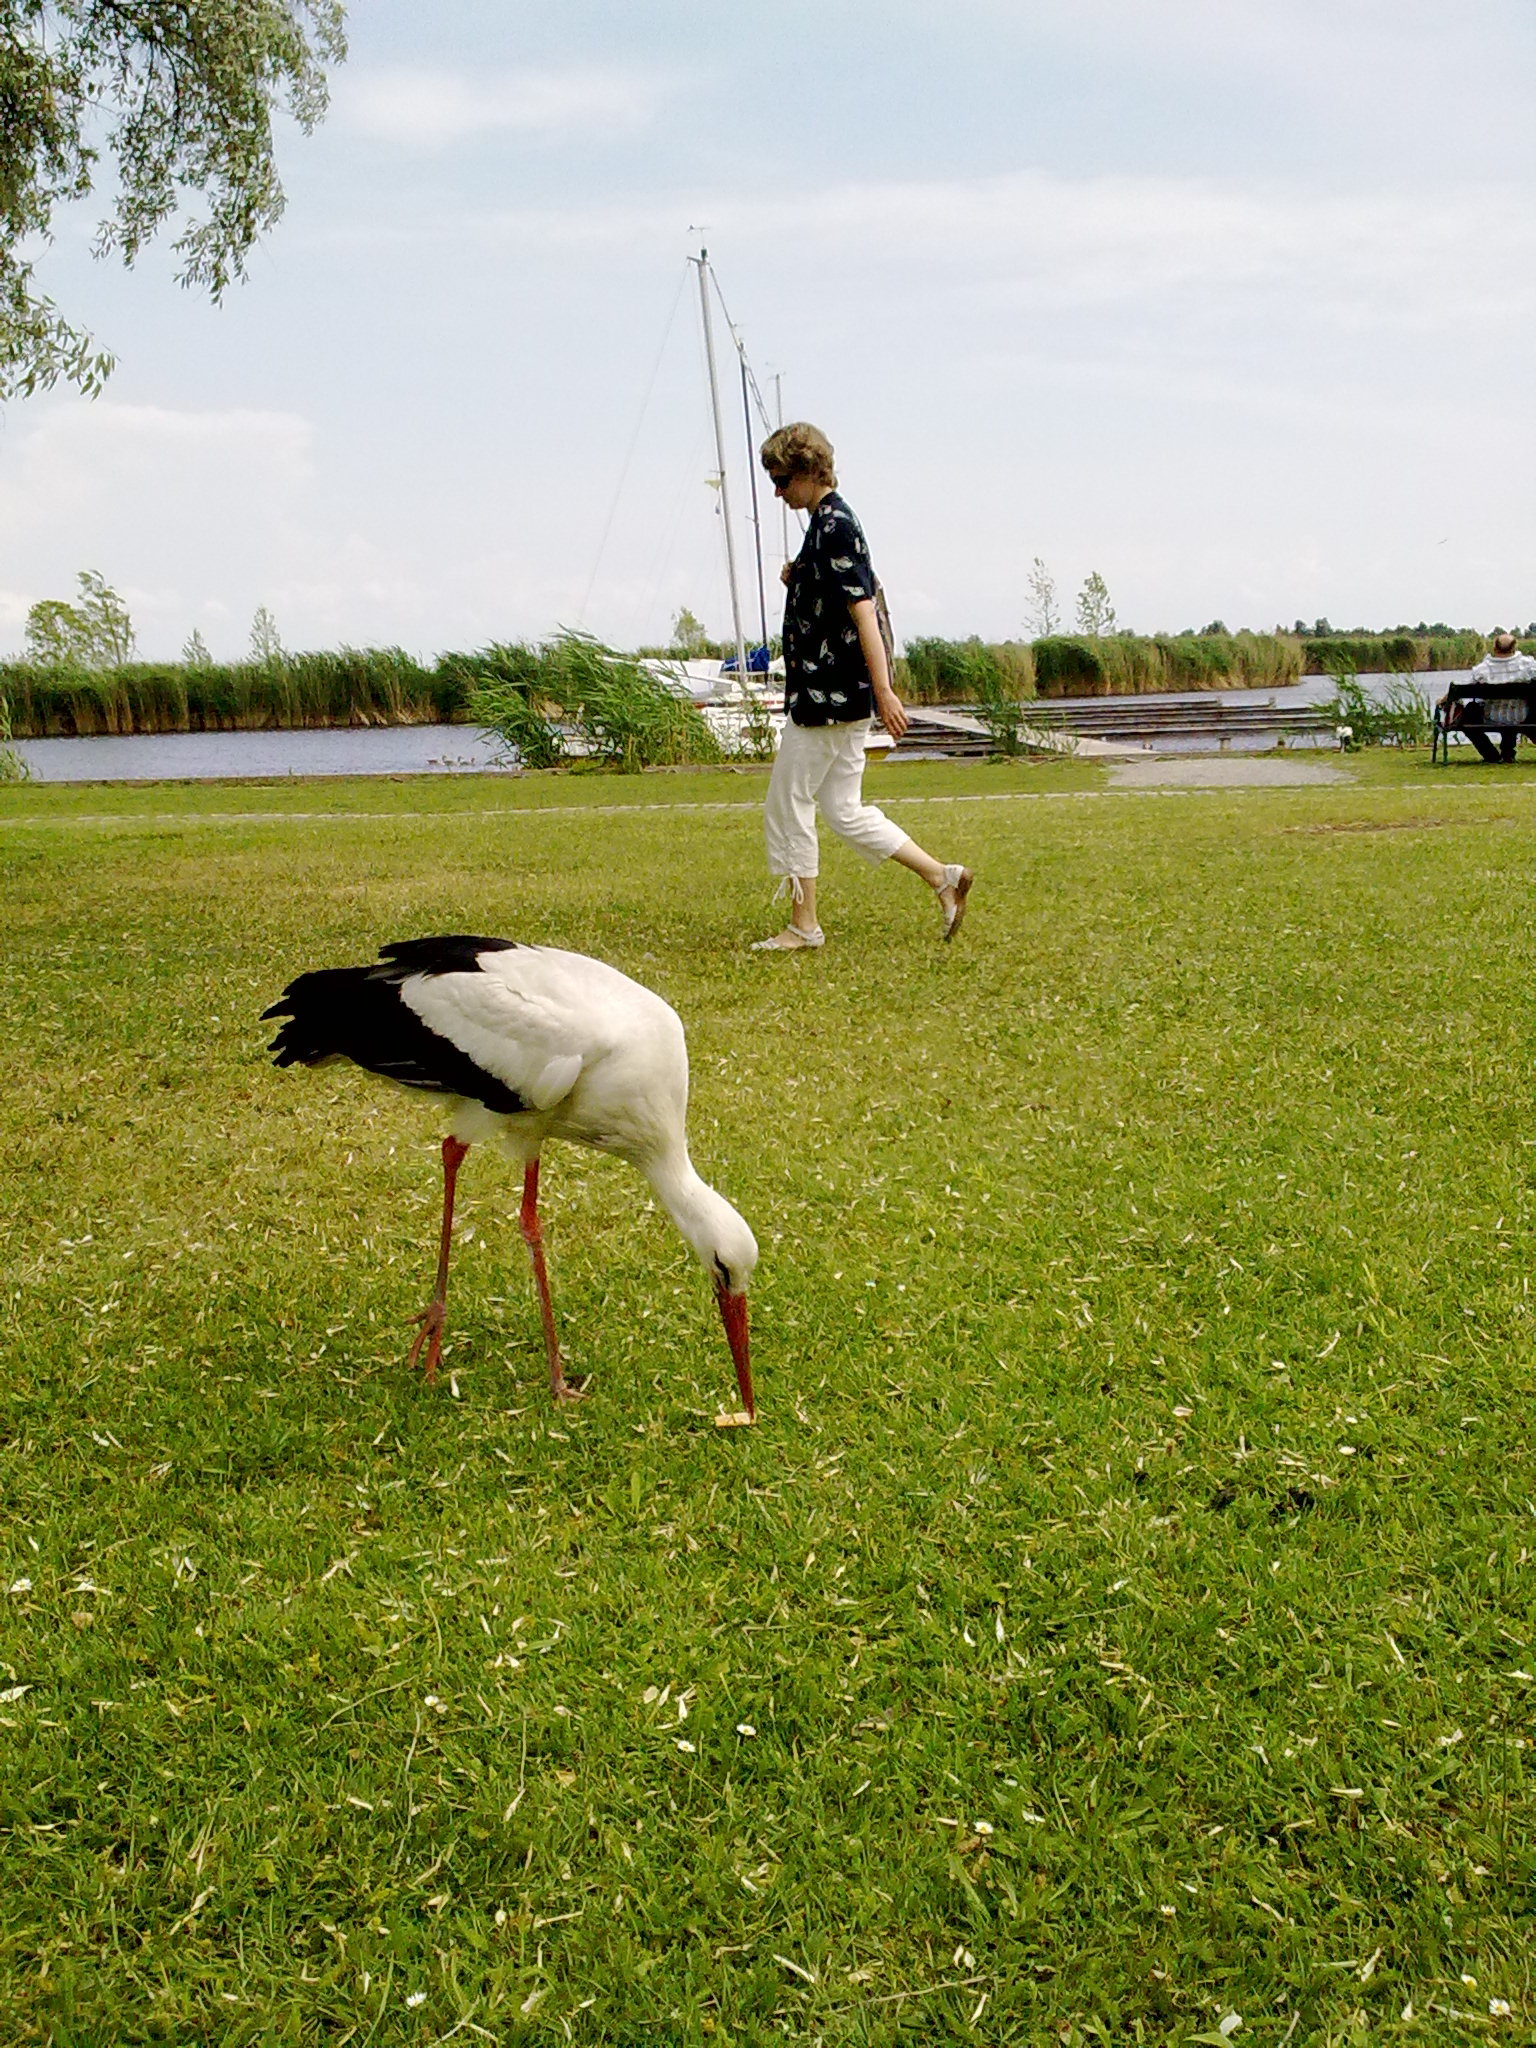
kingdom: Animalia
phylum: Chordata
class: Aves
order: Ciconiiformes
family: Ciconiidae
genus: Ciconia
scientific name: Ciconia ciconia
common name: White stork
